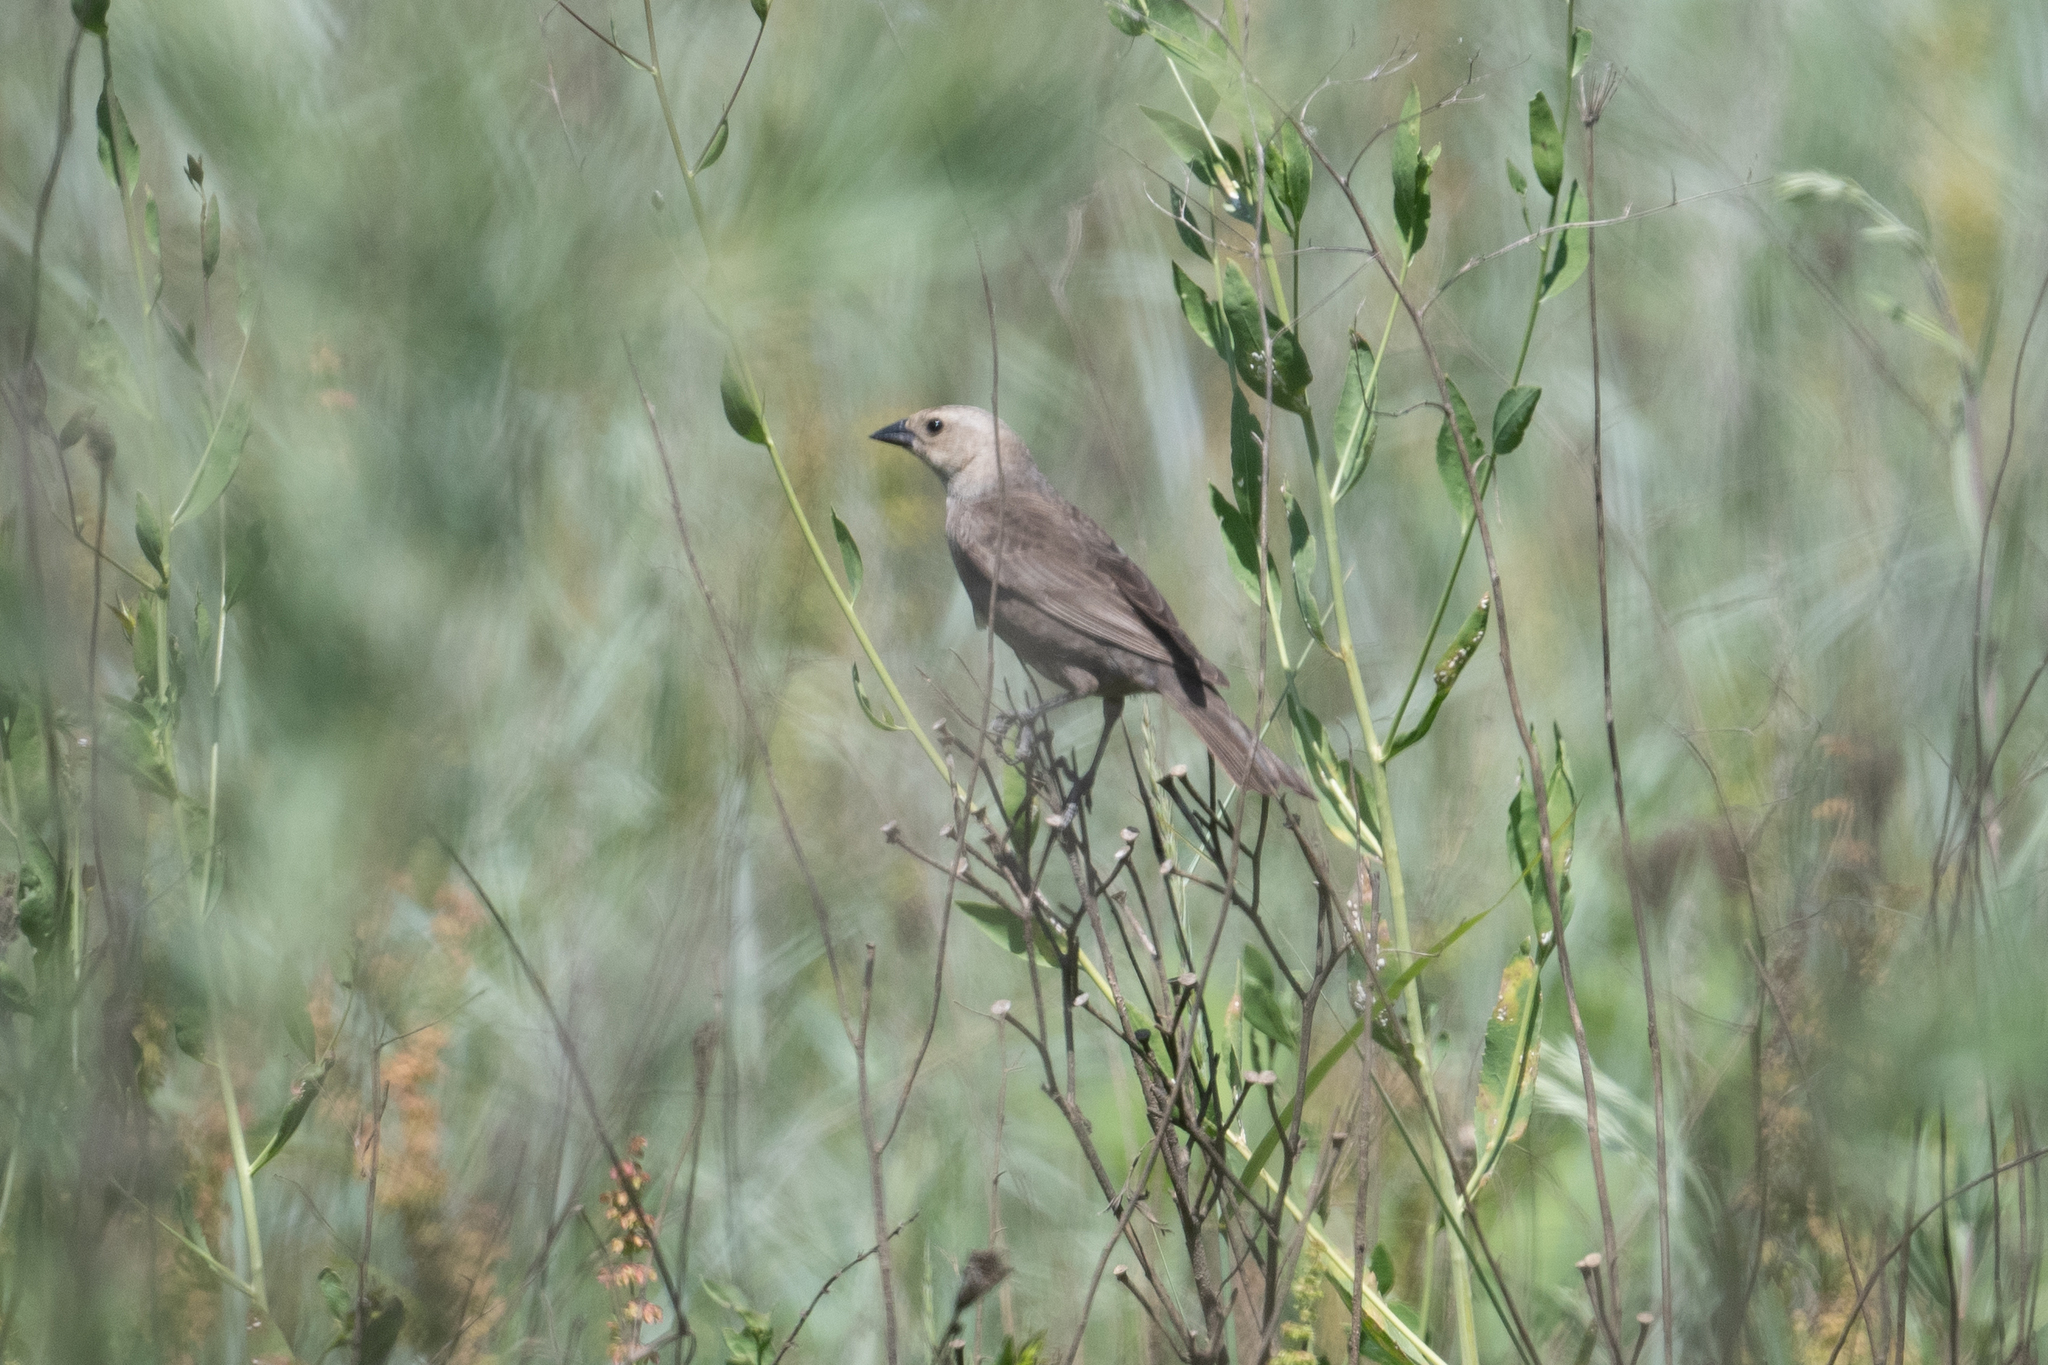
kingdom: Animalia
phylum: Chordata
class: Aves
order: Passeriformes
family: Icteridae
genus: Molothrus
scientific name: Molothrus ater
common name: Brown-headed cowbird
